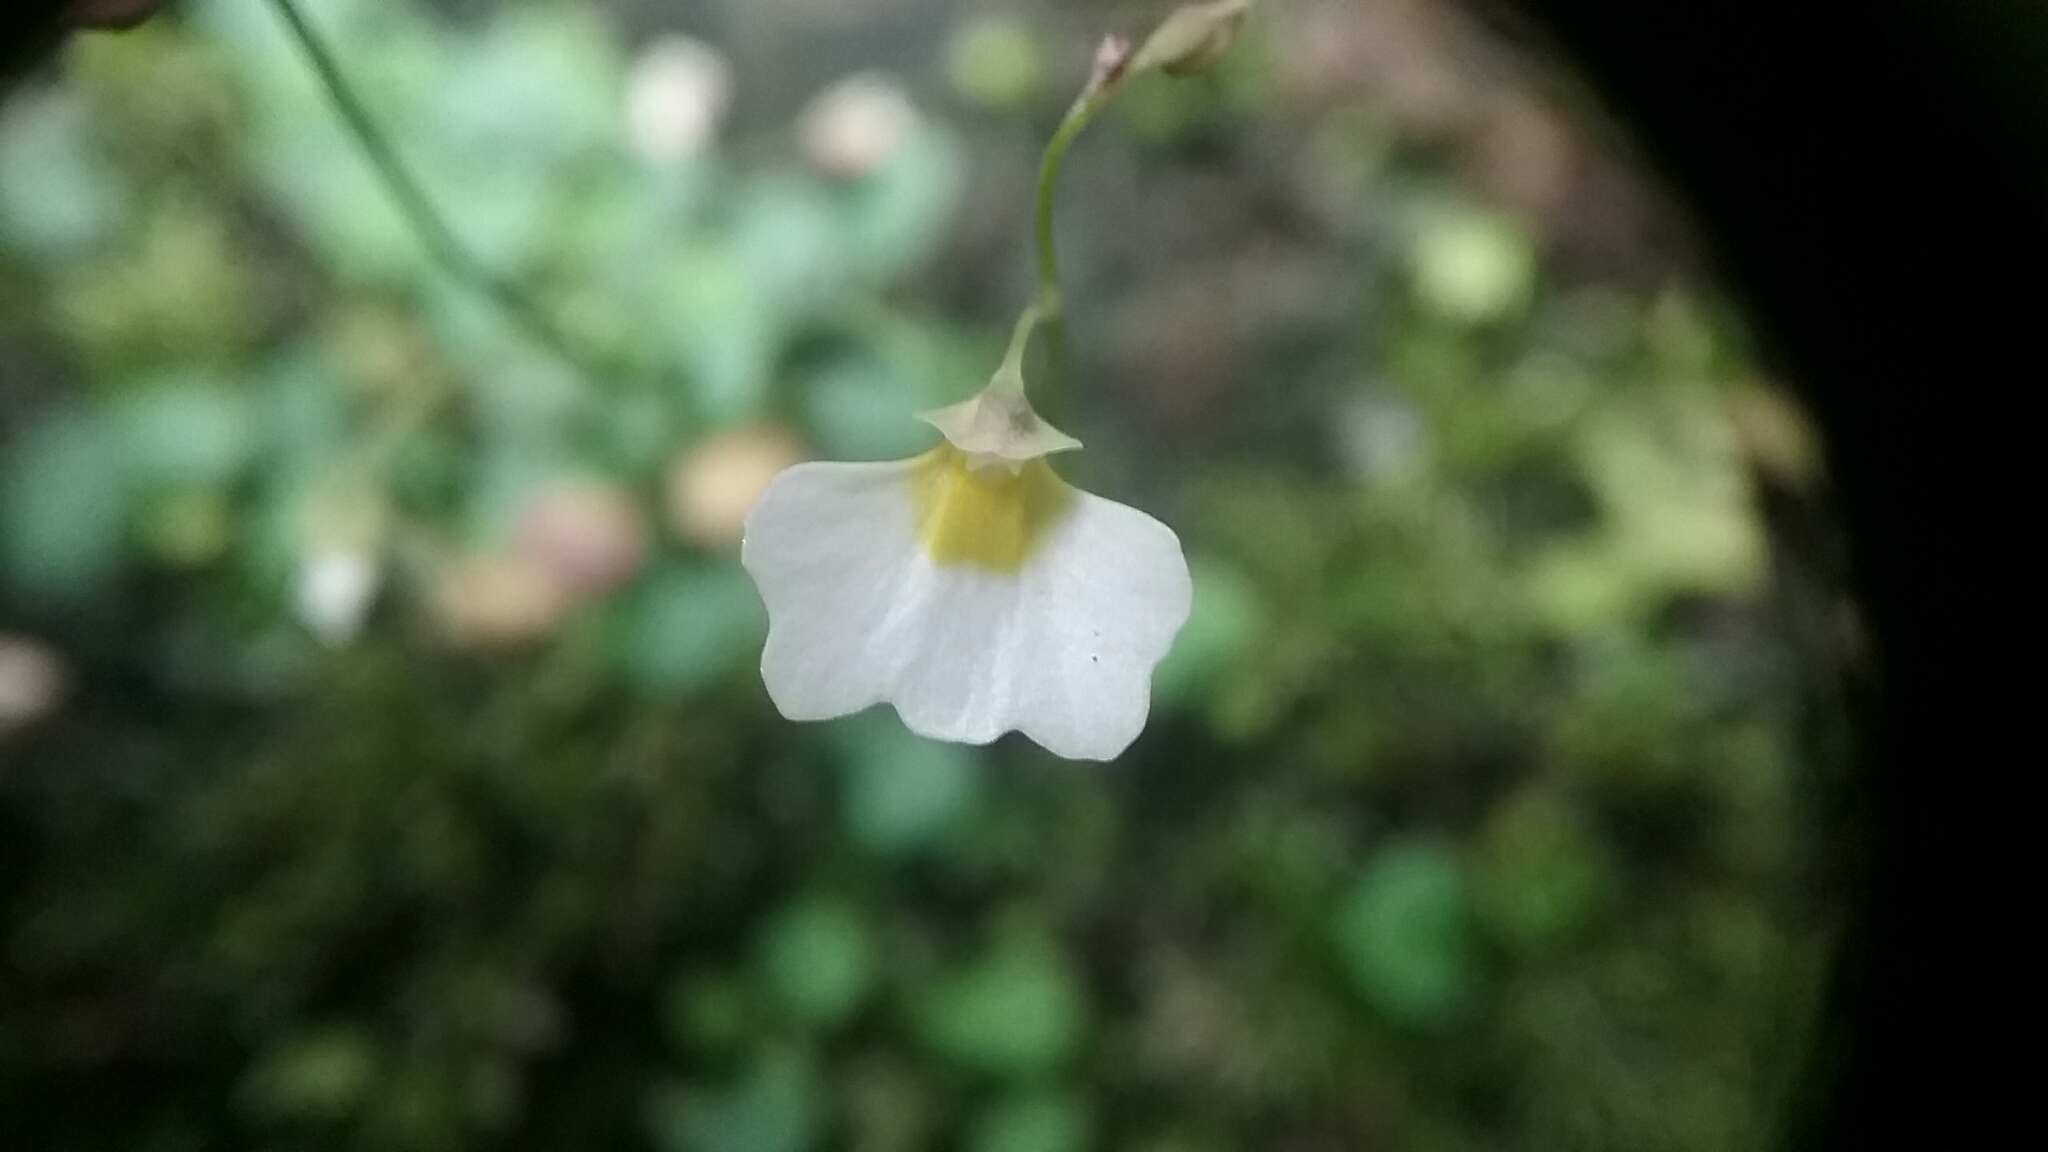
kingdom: Plantae
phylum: Tracheophyta
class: Magnoliopsida
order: Lamiales
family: Lentibulariaceae
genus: Utricularia
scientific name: Utricularia striatula
